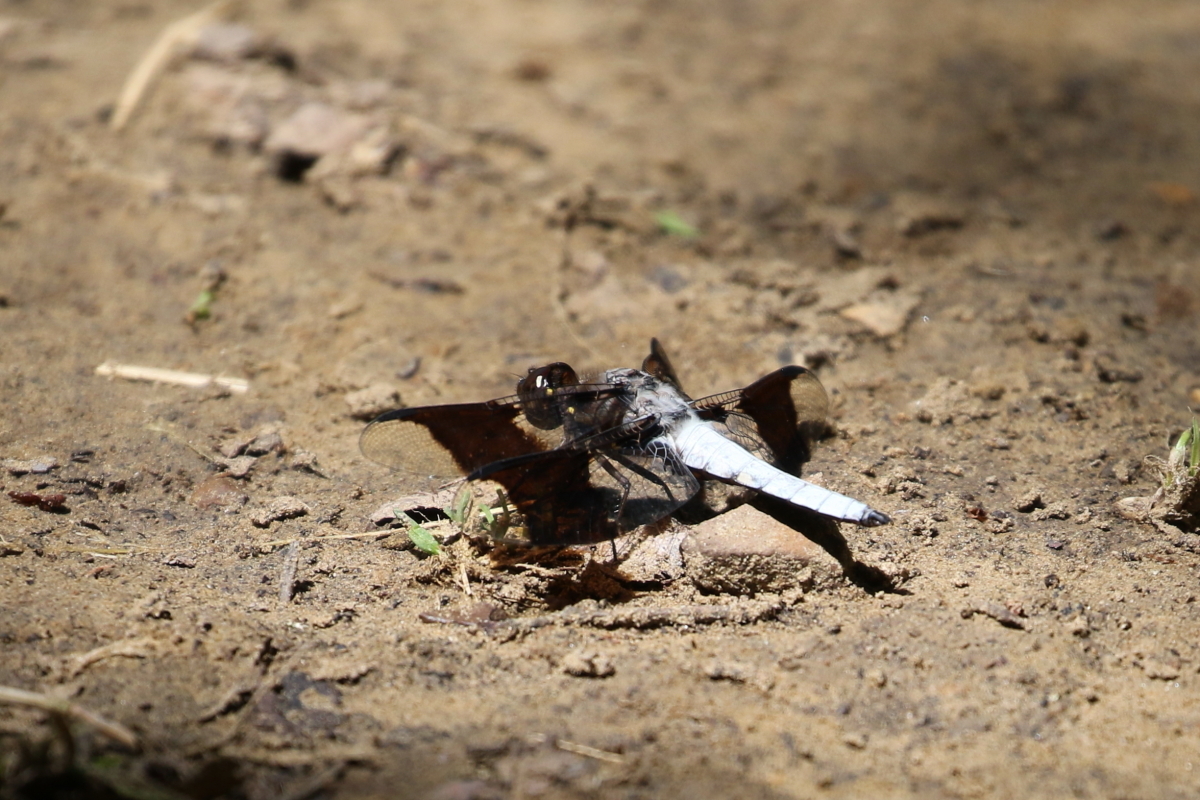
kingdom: Animalia
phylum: Arthropoda
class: Insecta
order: Odonata
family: Libellulidae
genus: Plathemis
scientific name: Plathemis lydia
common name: Common whitetail
